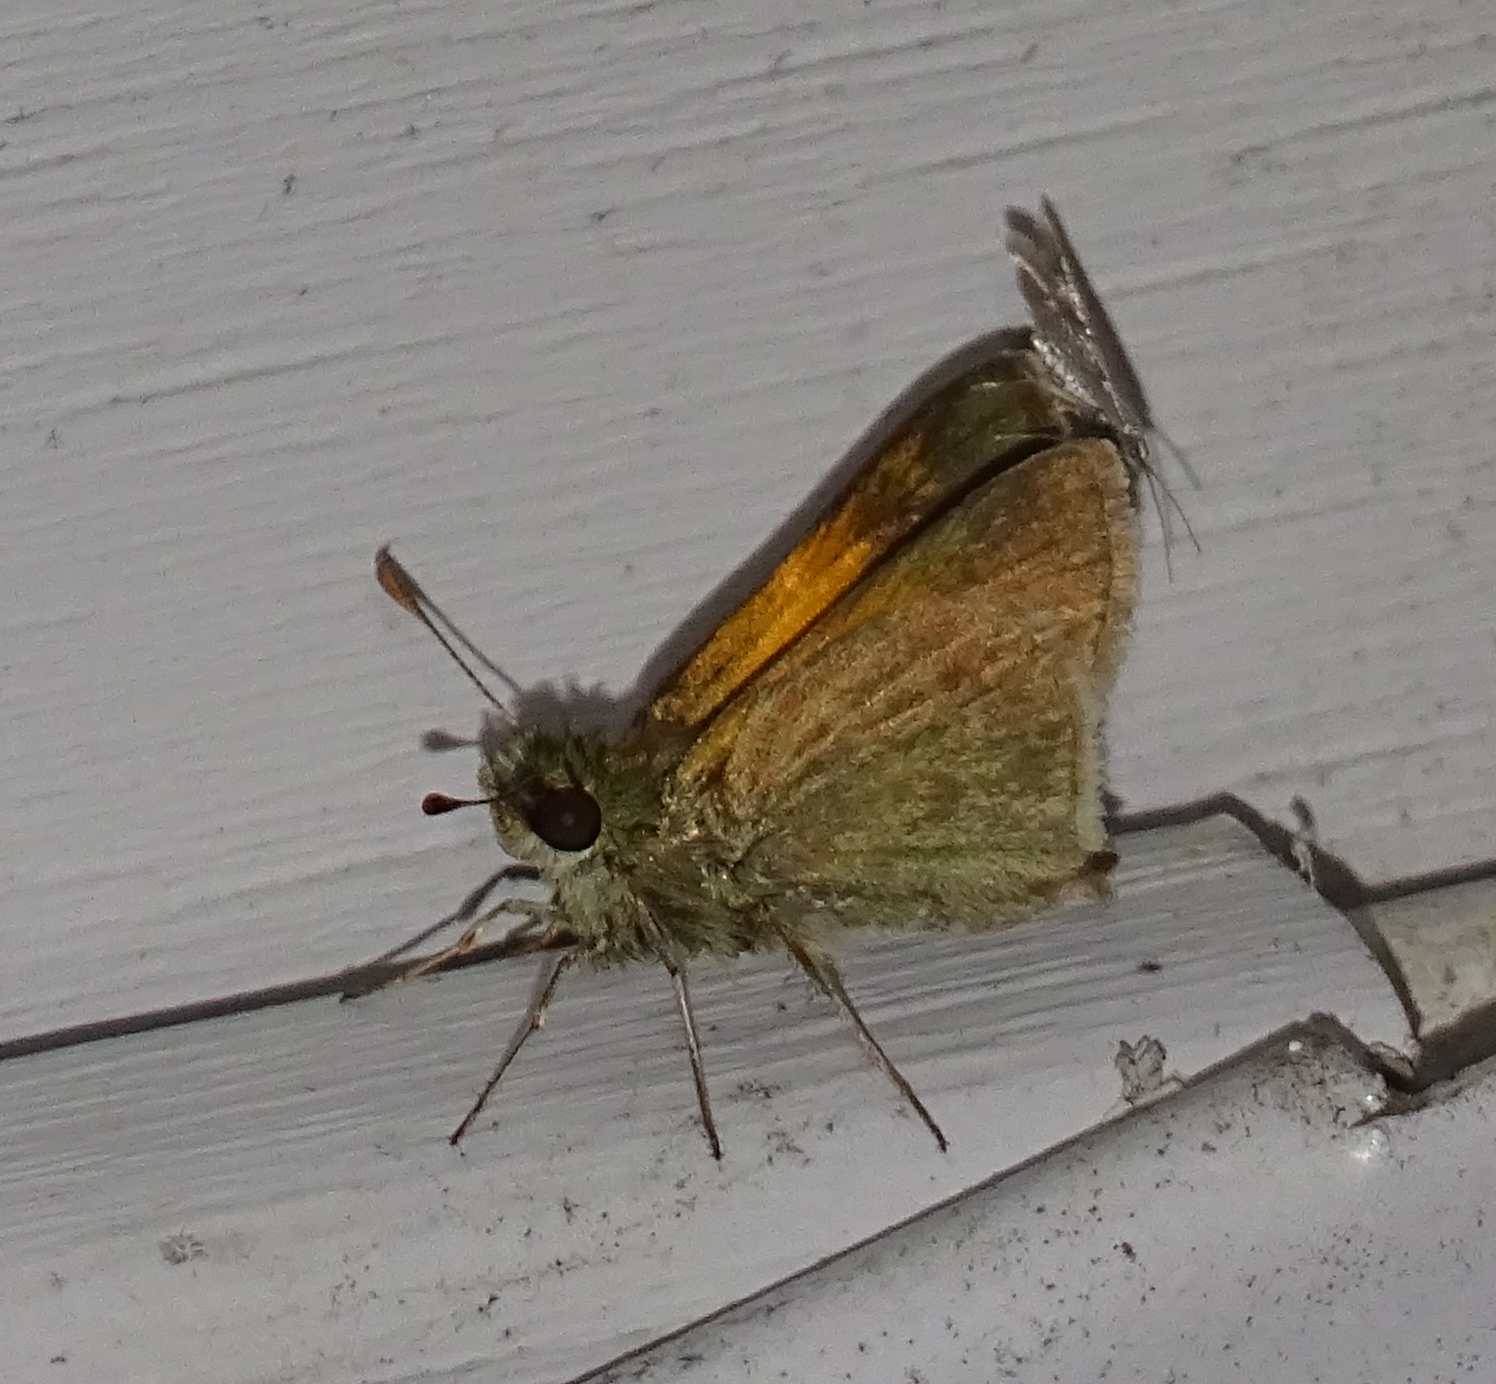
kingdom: Animalia
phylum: Arthropoda
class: Insecta
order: Lepidoptera
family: Hesperiidae
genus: Polites
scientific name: Polites themistocles
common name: Tawny-edged skipper
